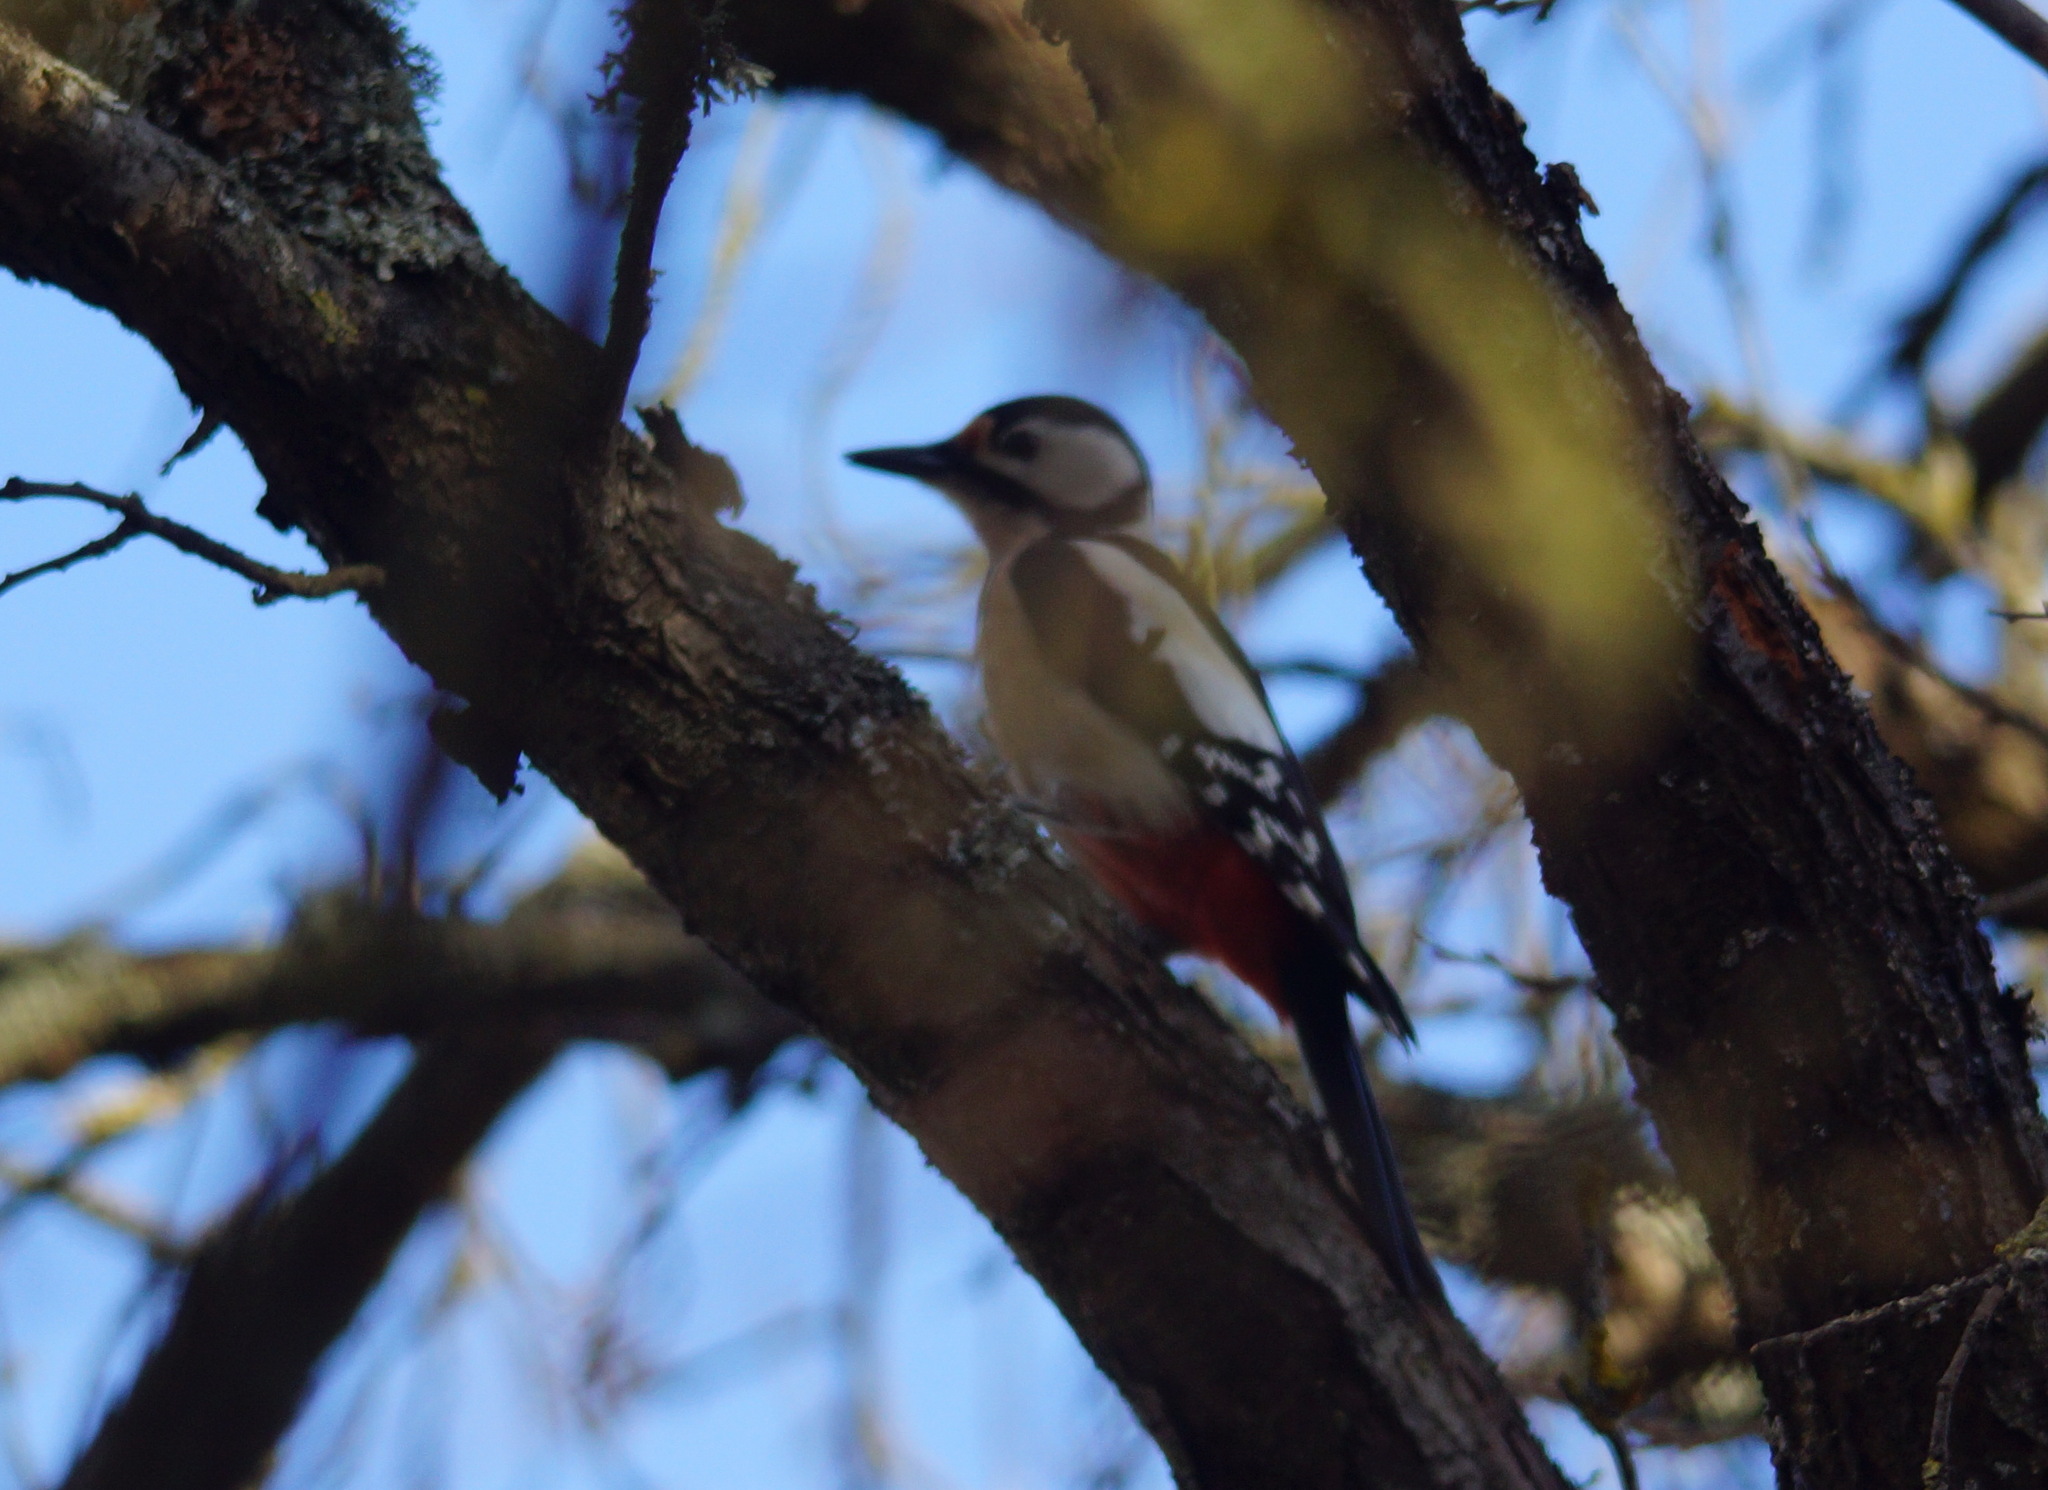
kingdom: Animalia
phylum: Chordata
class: Aves
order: Piciformes
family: Picidae
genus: Dendrocopos
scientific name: Dendrocopos major
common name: Great spotted woodpecker
